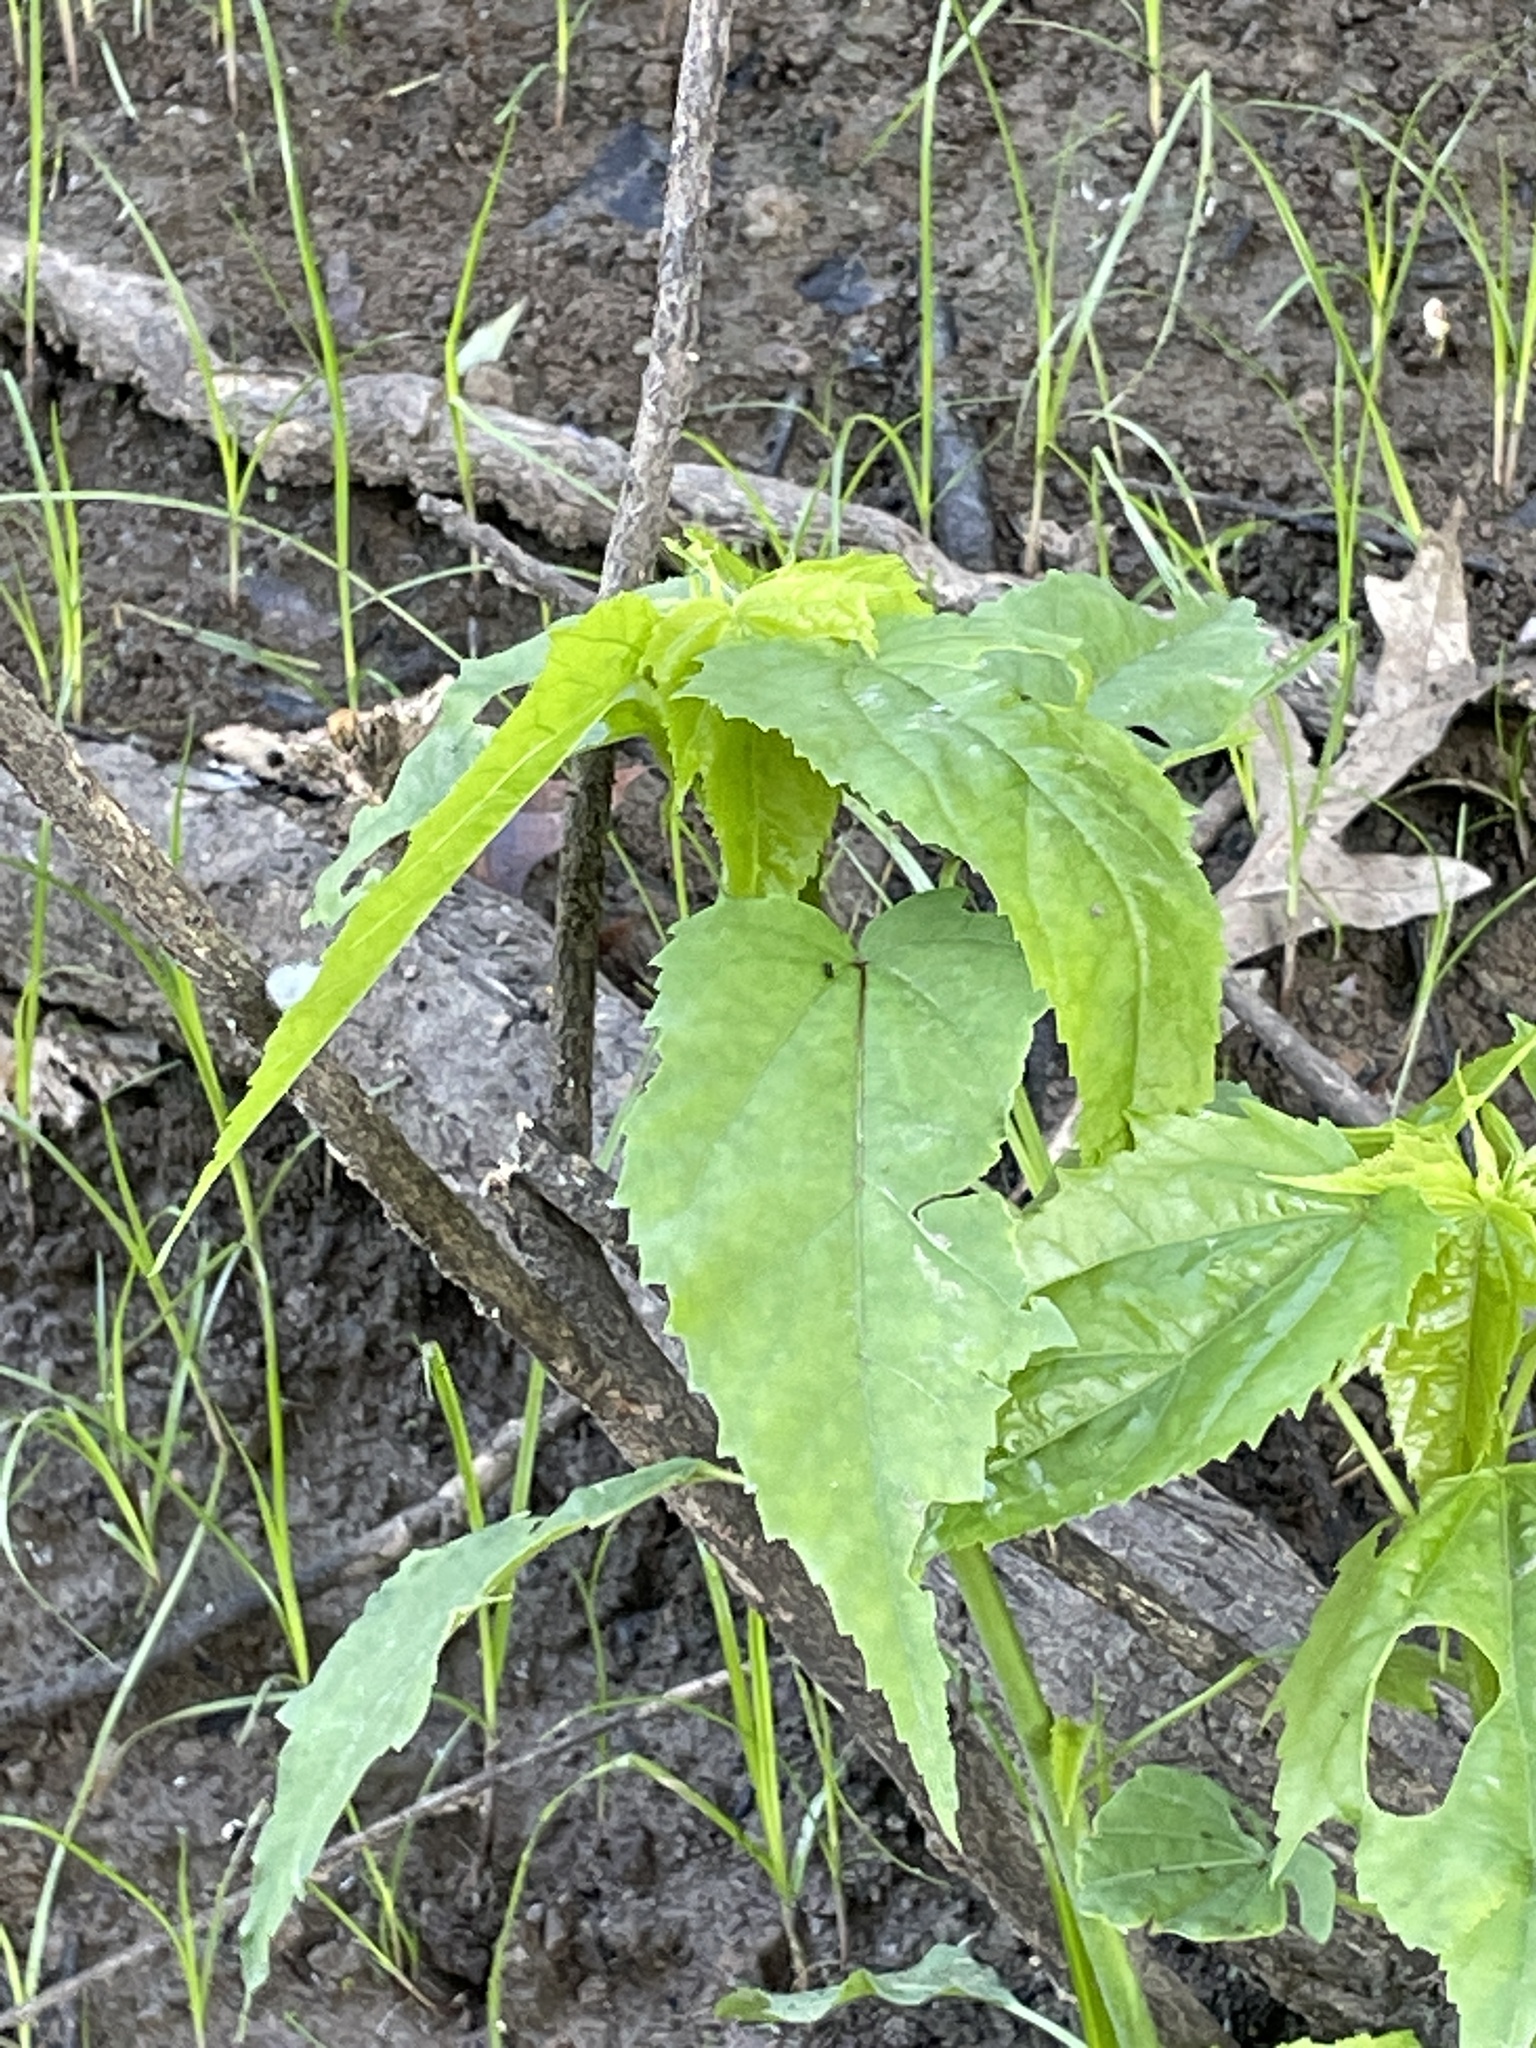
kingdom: Plantae
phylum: Tracheophyta
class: Magnoliopsida
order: Malvales
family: Malvaceae
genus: Hibiscus
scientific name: Hibiscus laevis
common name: Scarlet rose-mallow
